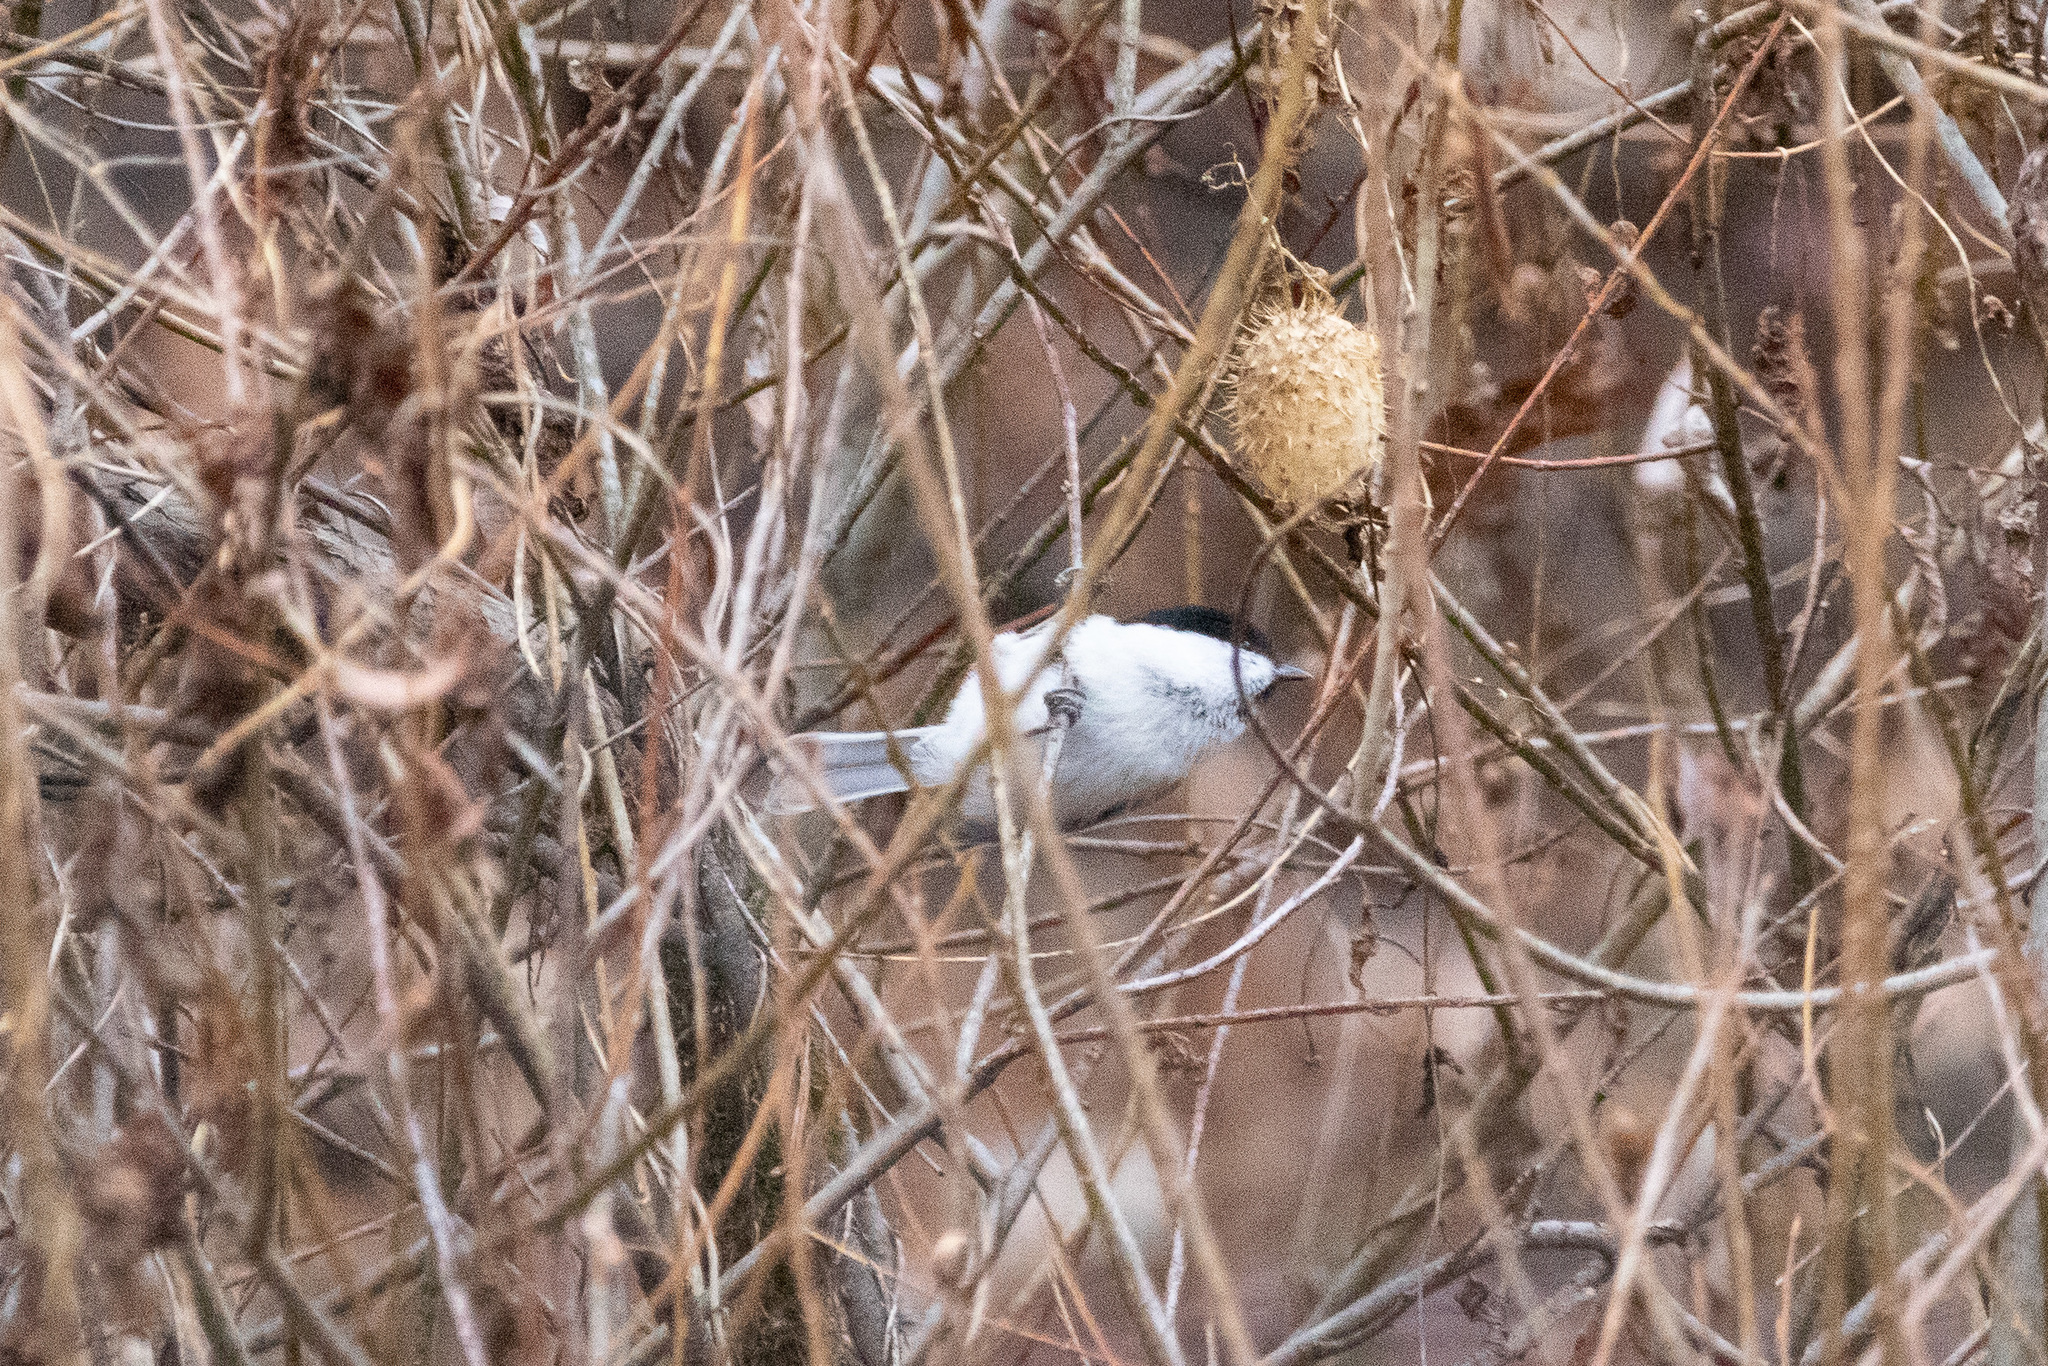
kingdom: Animalia
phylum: Chordata
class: Aves
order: Passeriformes
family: Paridae
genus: Poecile
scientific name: Poecile montanus
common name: Willow tit
